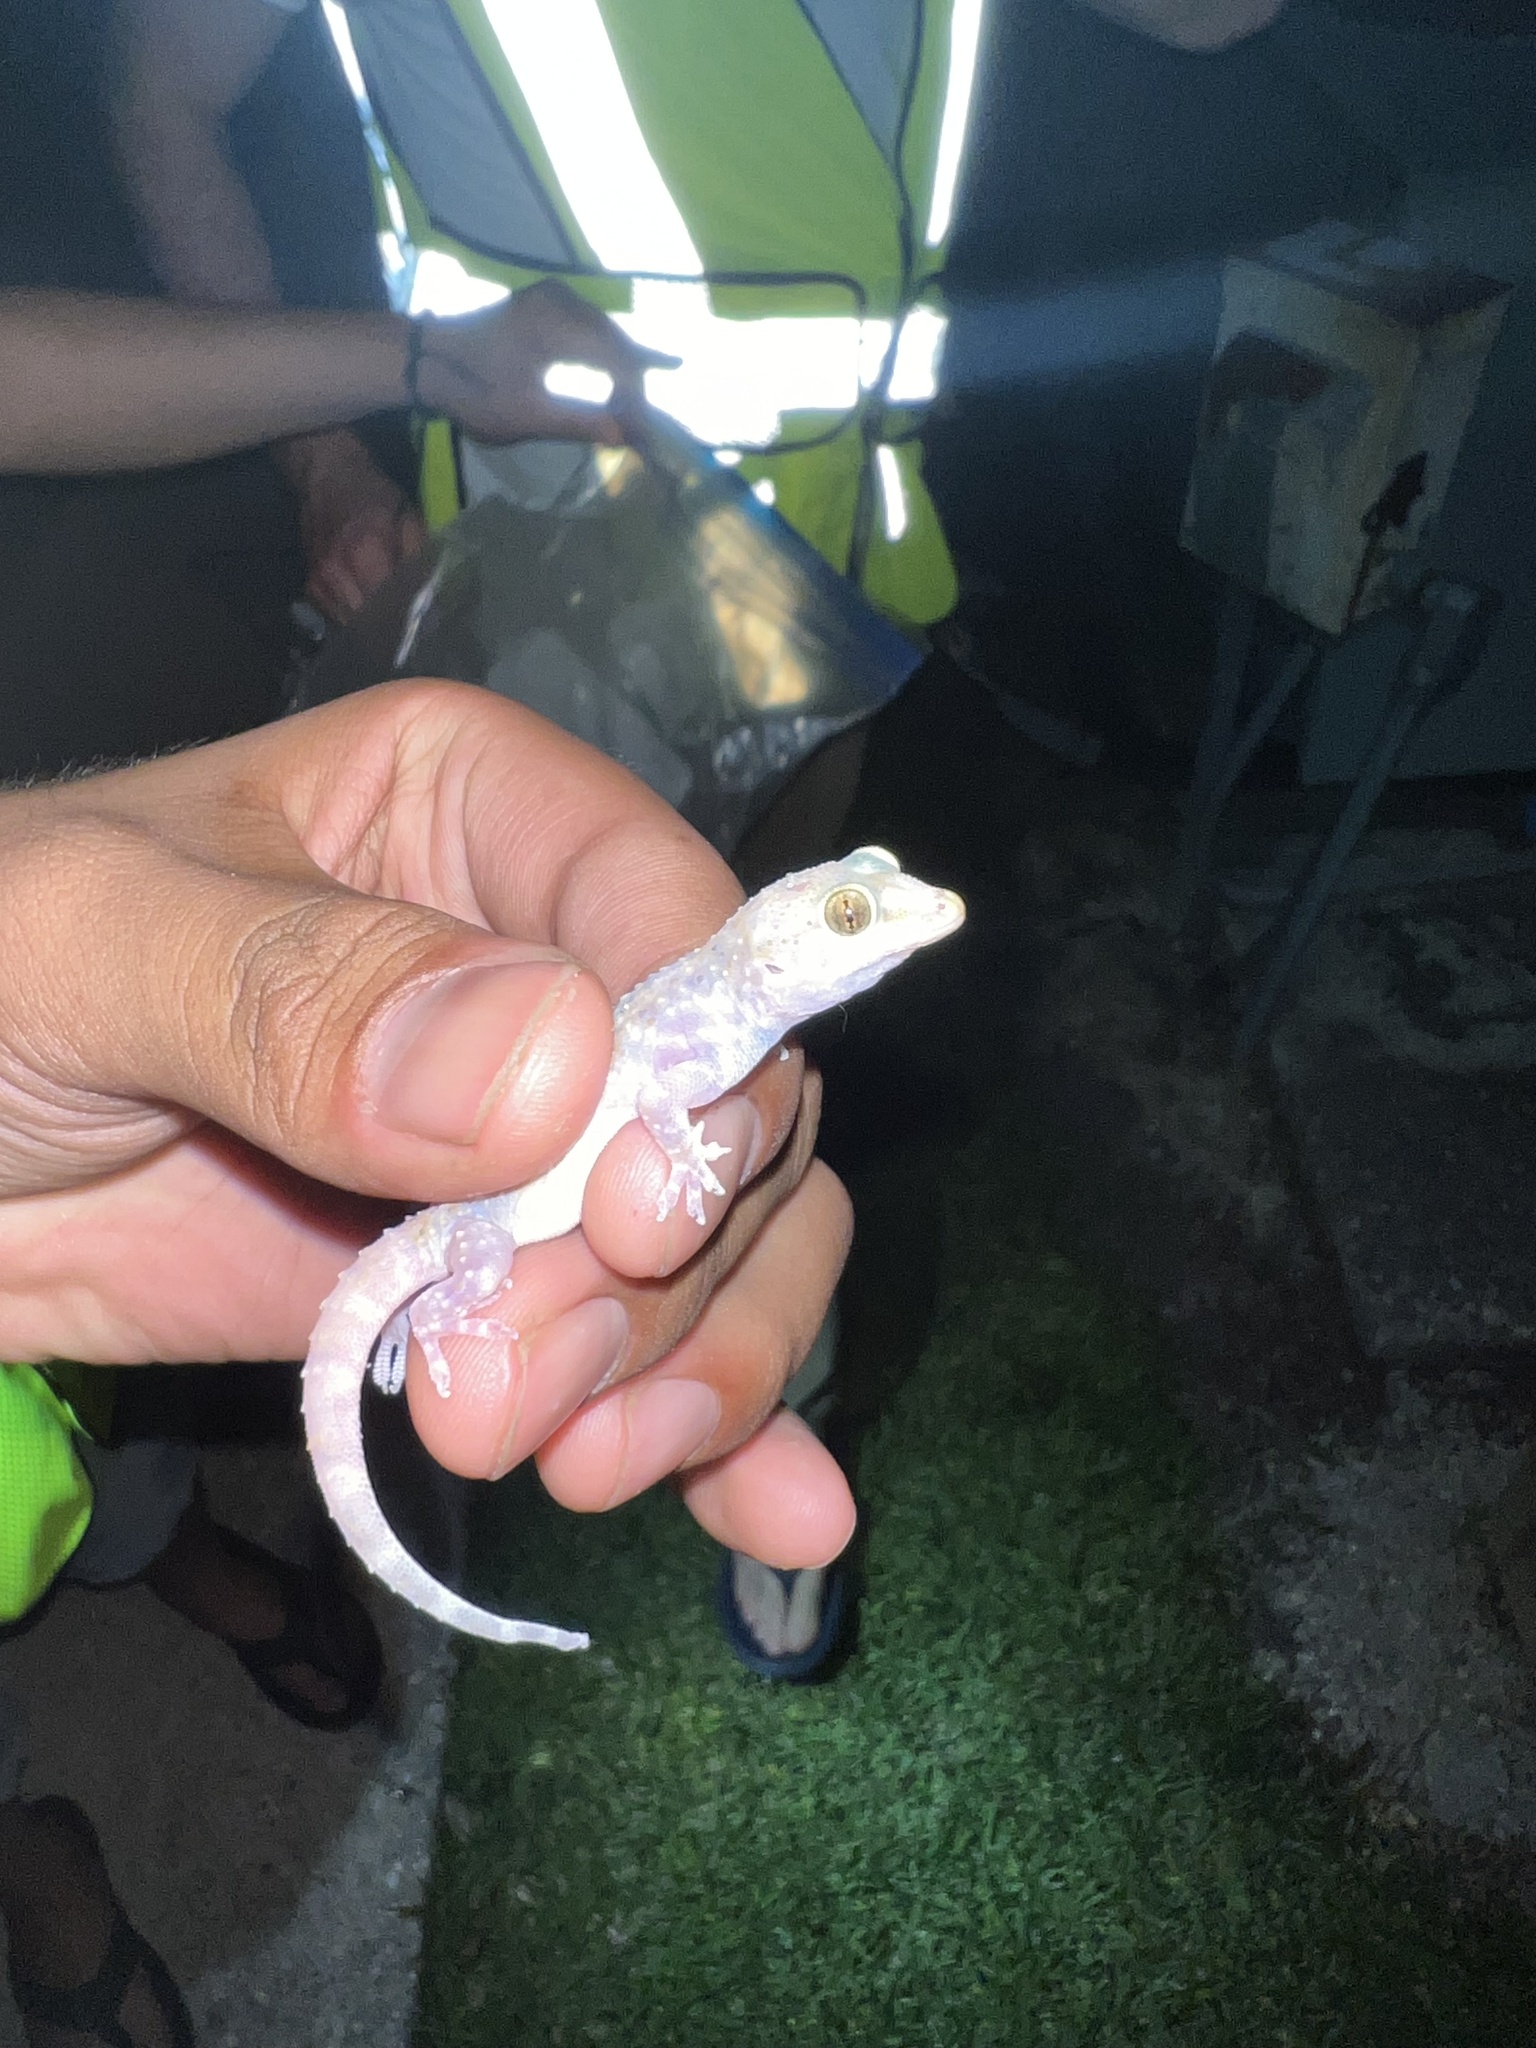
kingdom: Animalia
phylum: Chordata
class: Squamata
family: Gekkonidae
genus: Hemidactylus
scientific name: Hemidactylus turcicus
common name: Turkish gecko
